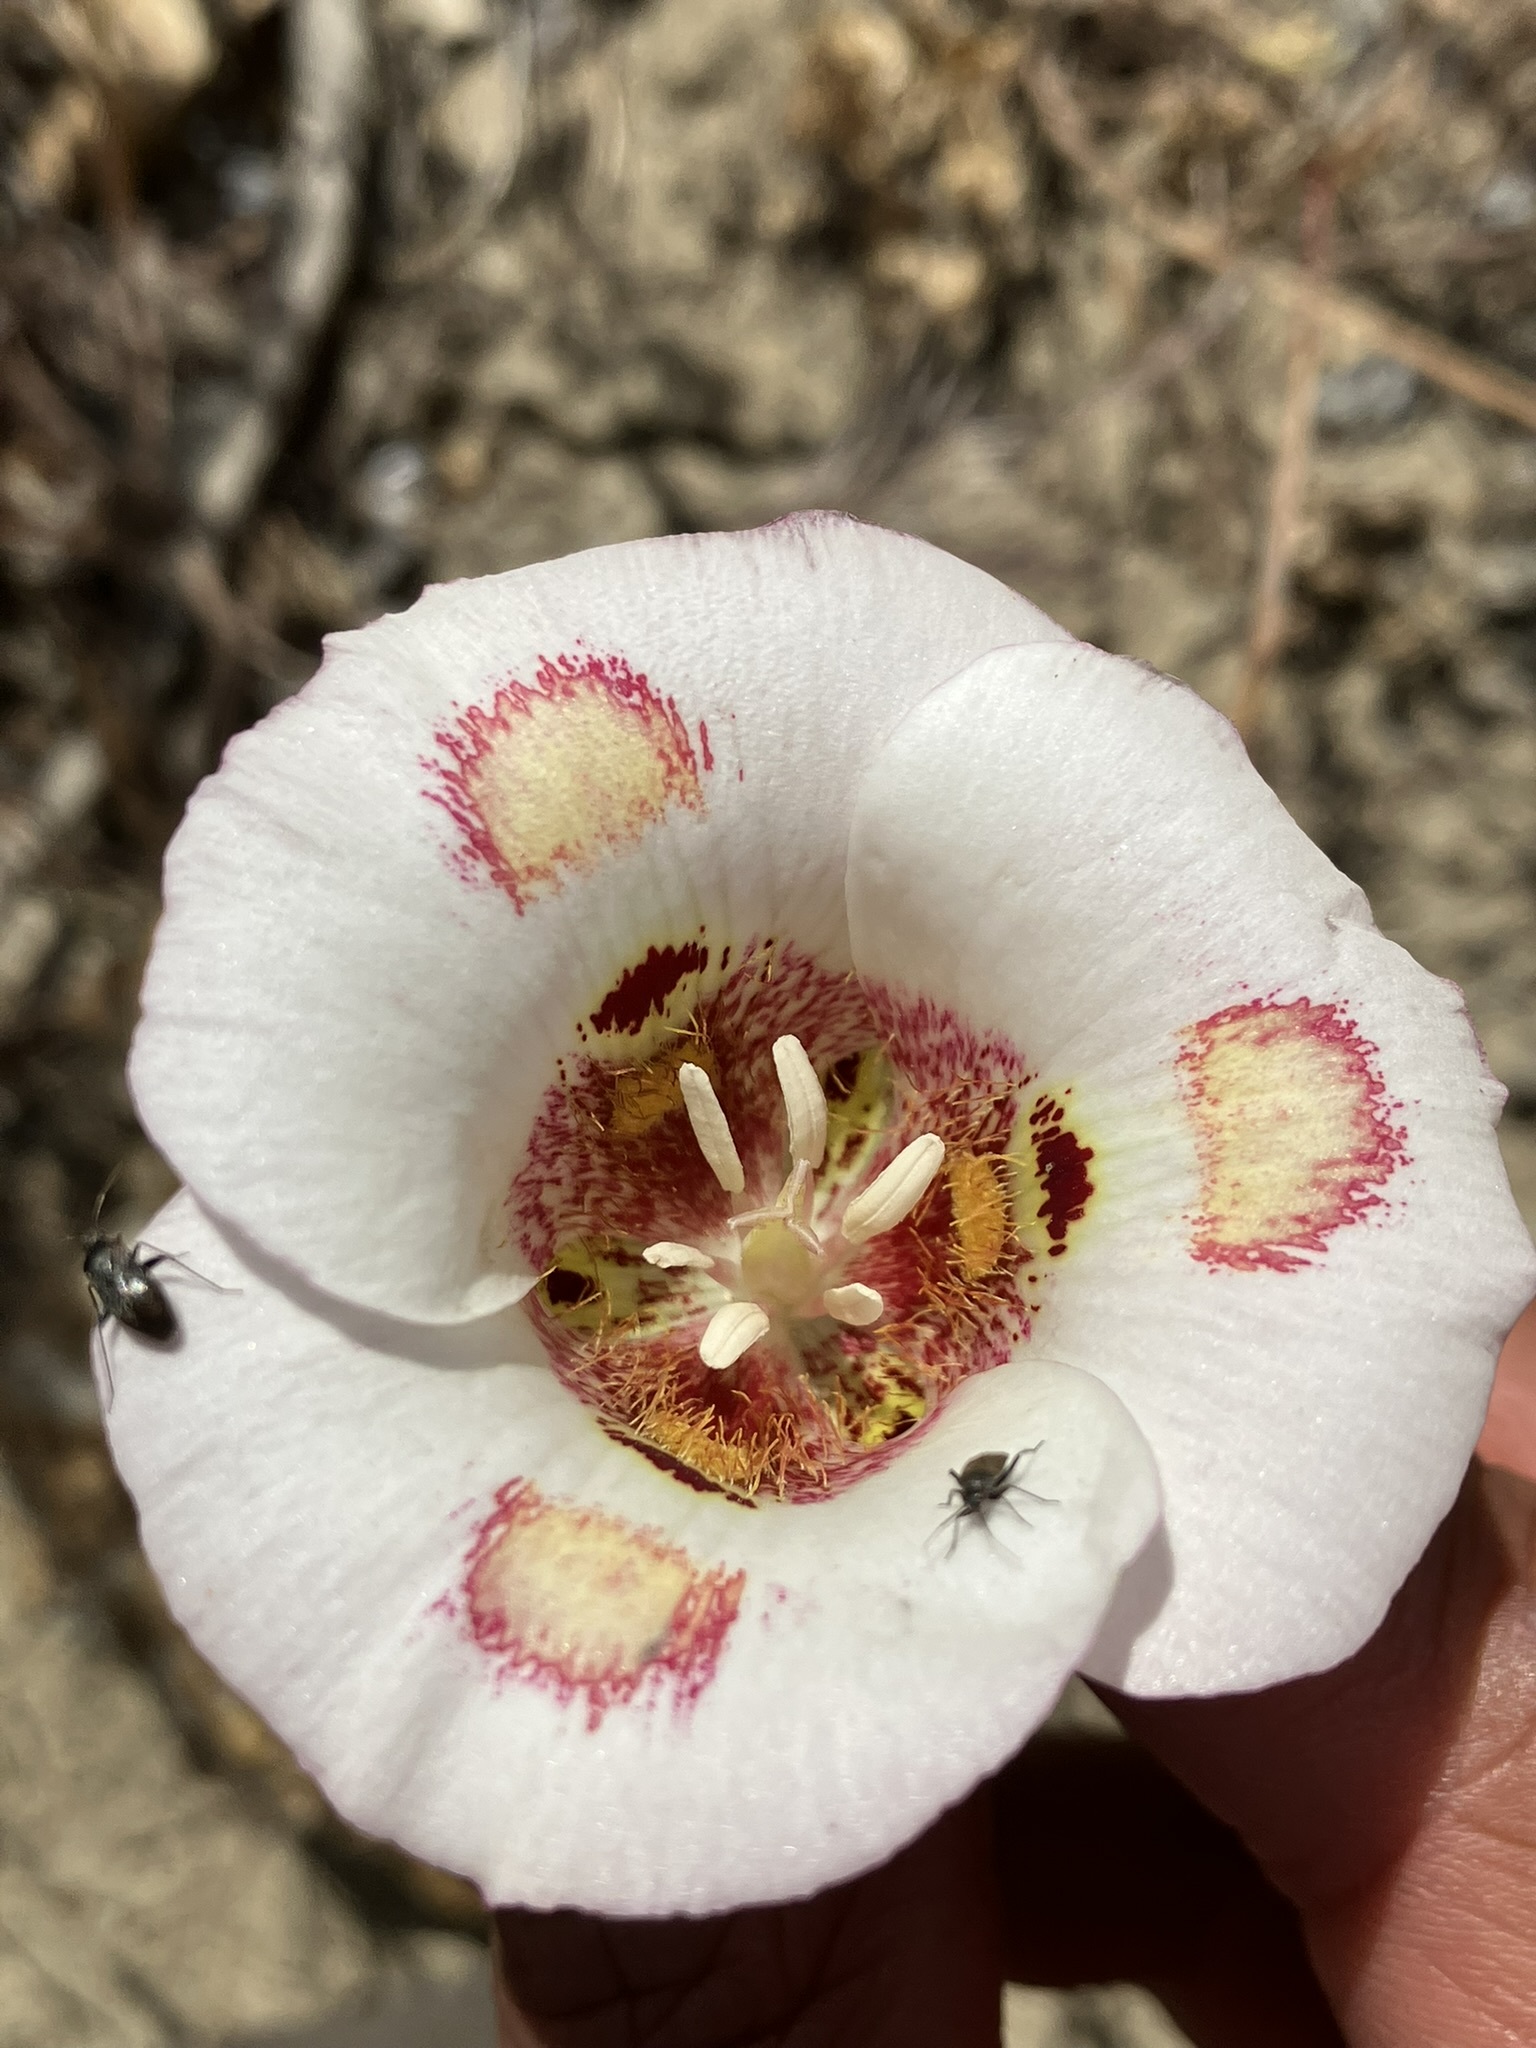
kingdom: Plantae
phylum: Tracheophyta
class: Liliopsida
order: Liliales
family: Liliaceae
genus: Calochortus
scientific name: Calochortus venustus
